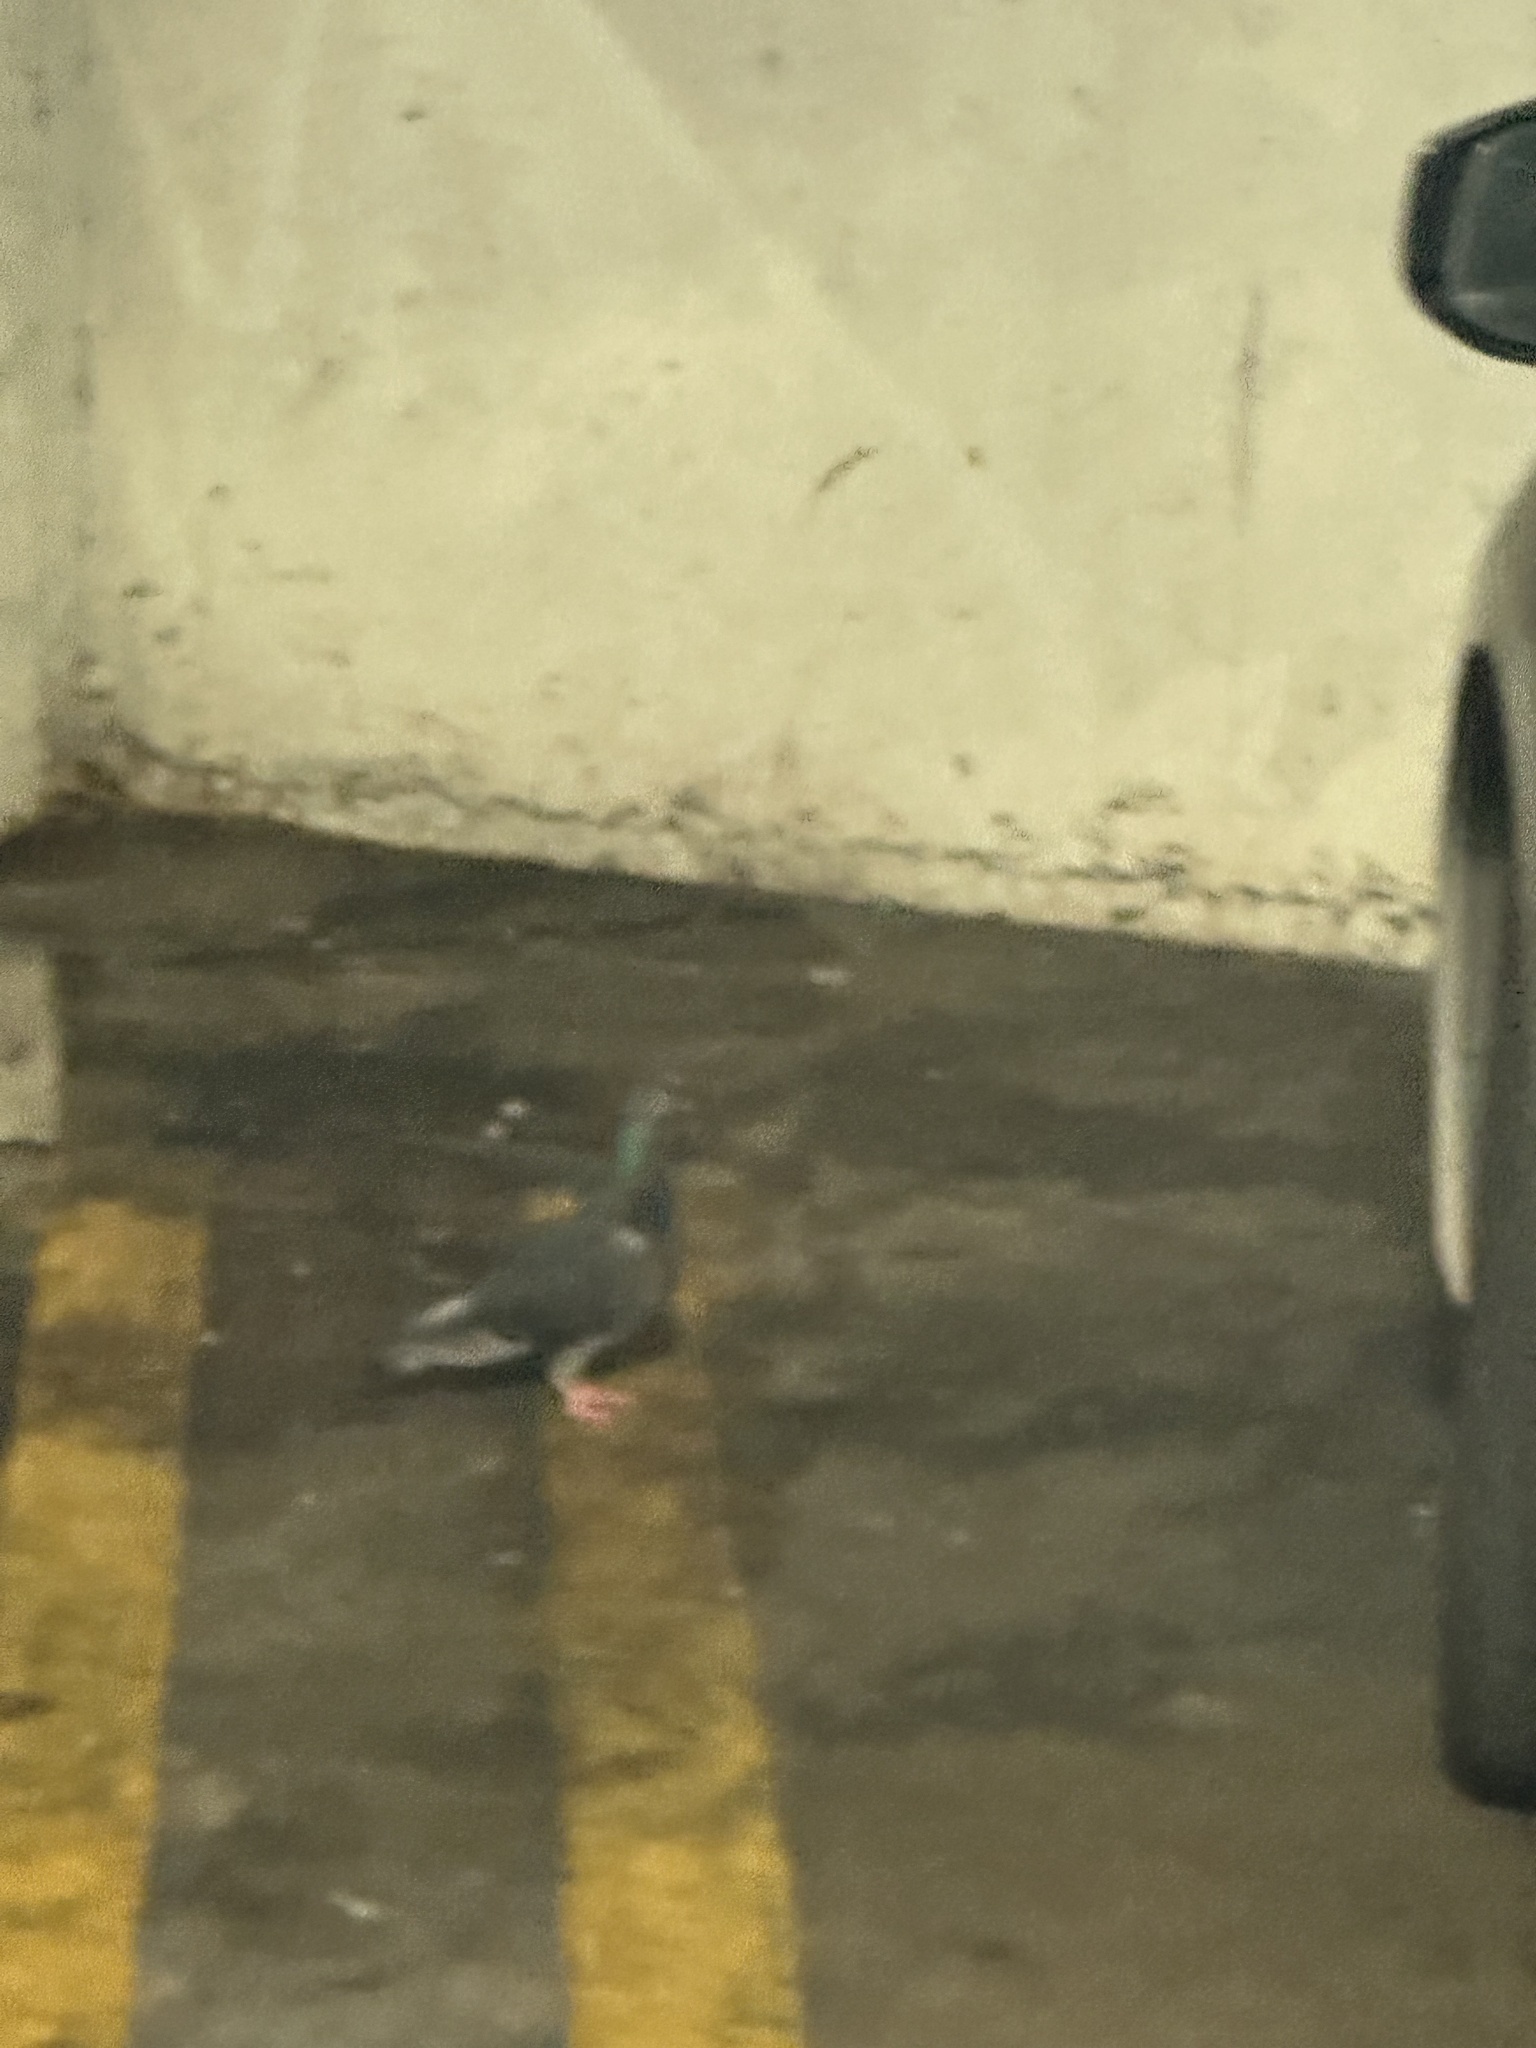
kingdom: Animalia
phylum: Chordata
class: Aves
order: Columbiformes
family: Columbidae
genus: Columba
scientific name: Columba livia
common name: Rock pigeon
